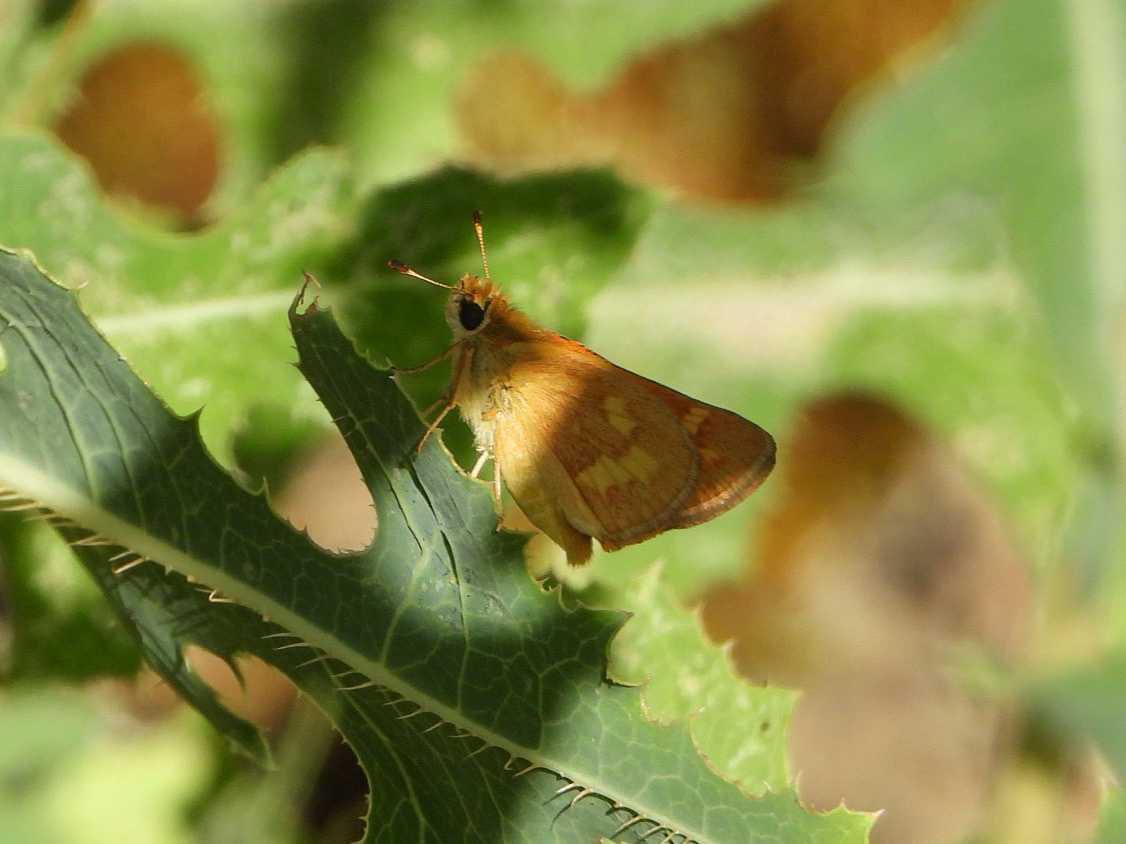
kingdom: Animalia
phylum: Arthropoda
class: Insecta
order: Lepidoptera
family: Hesperiidae
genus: Ochlodes
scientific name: Ochlodes sylvanoides
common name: Woodland skipper
